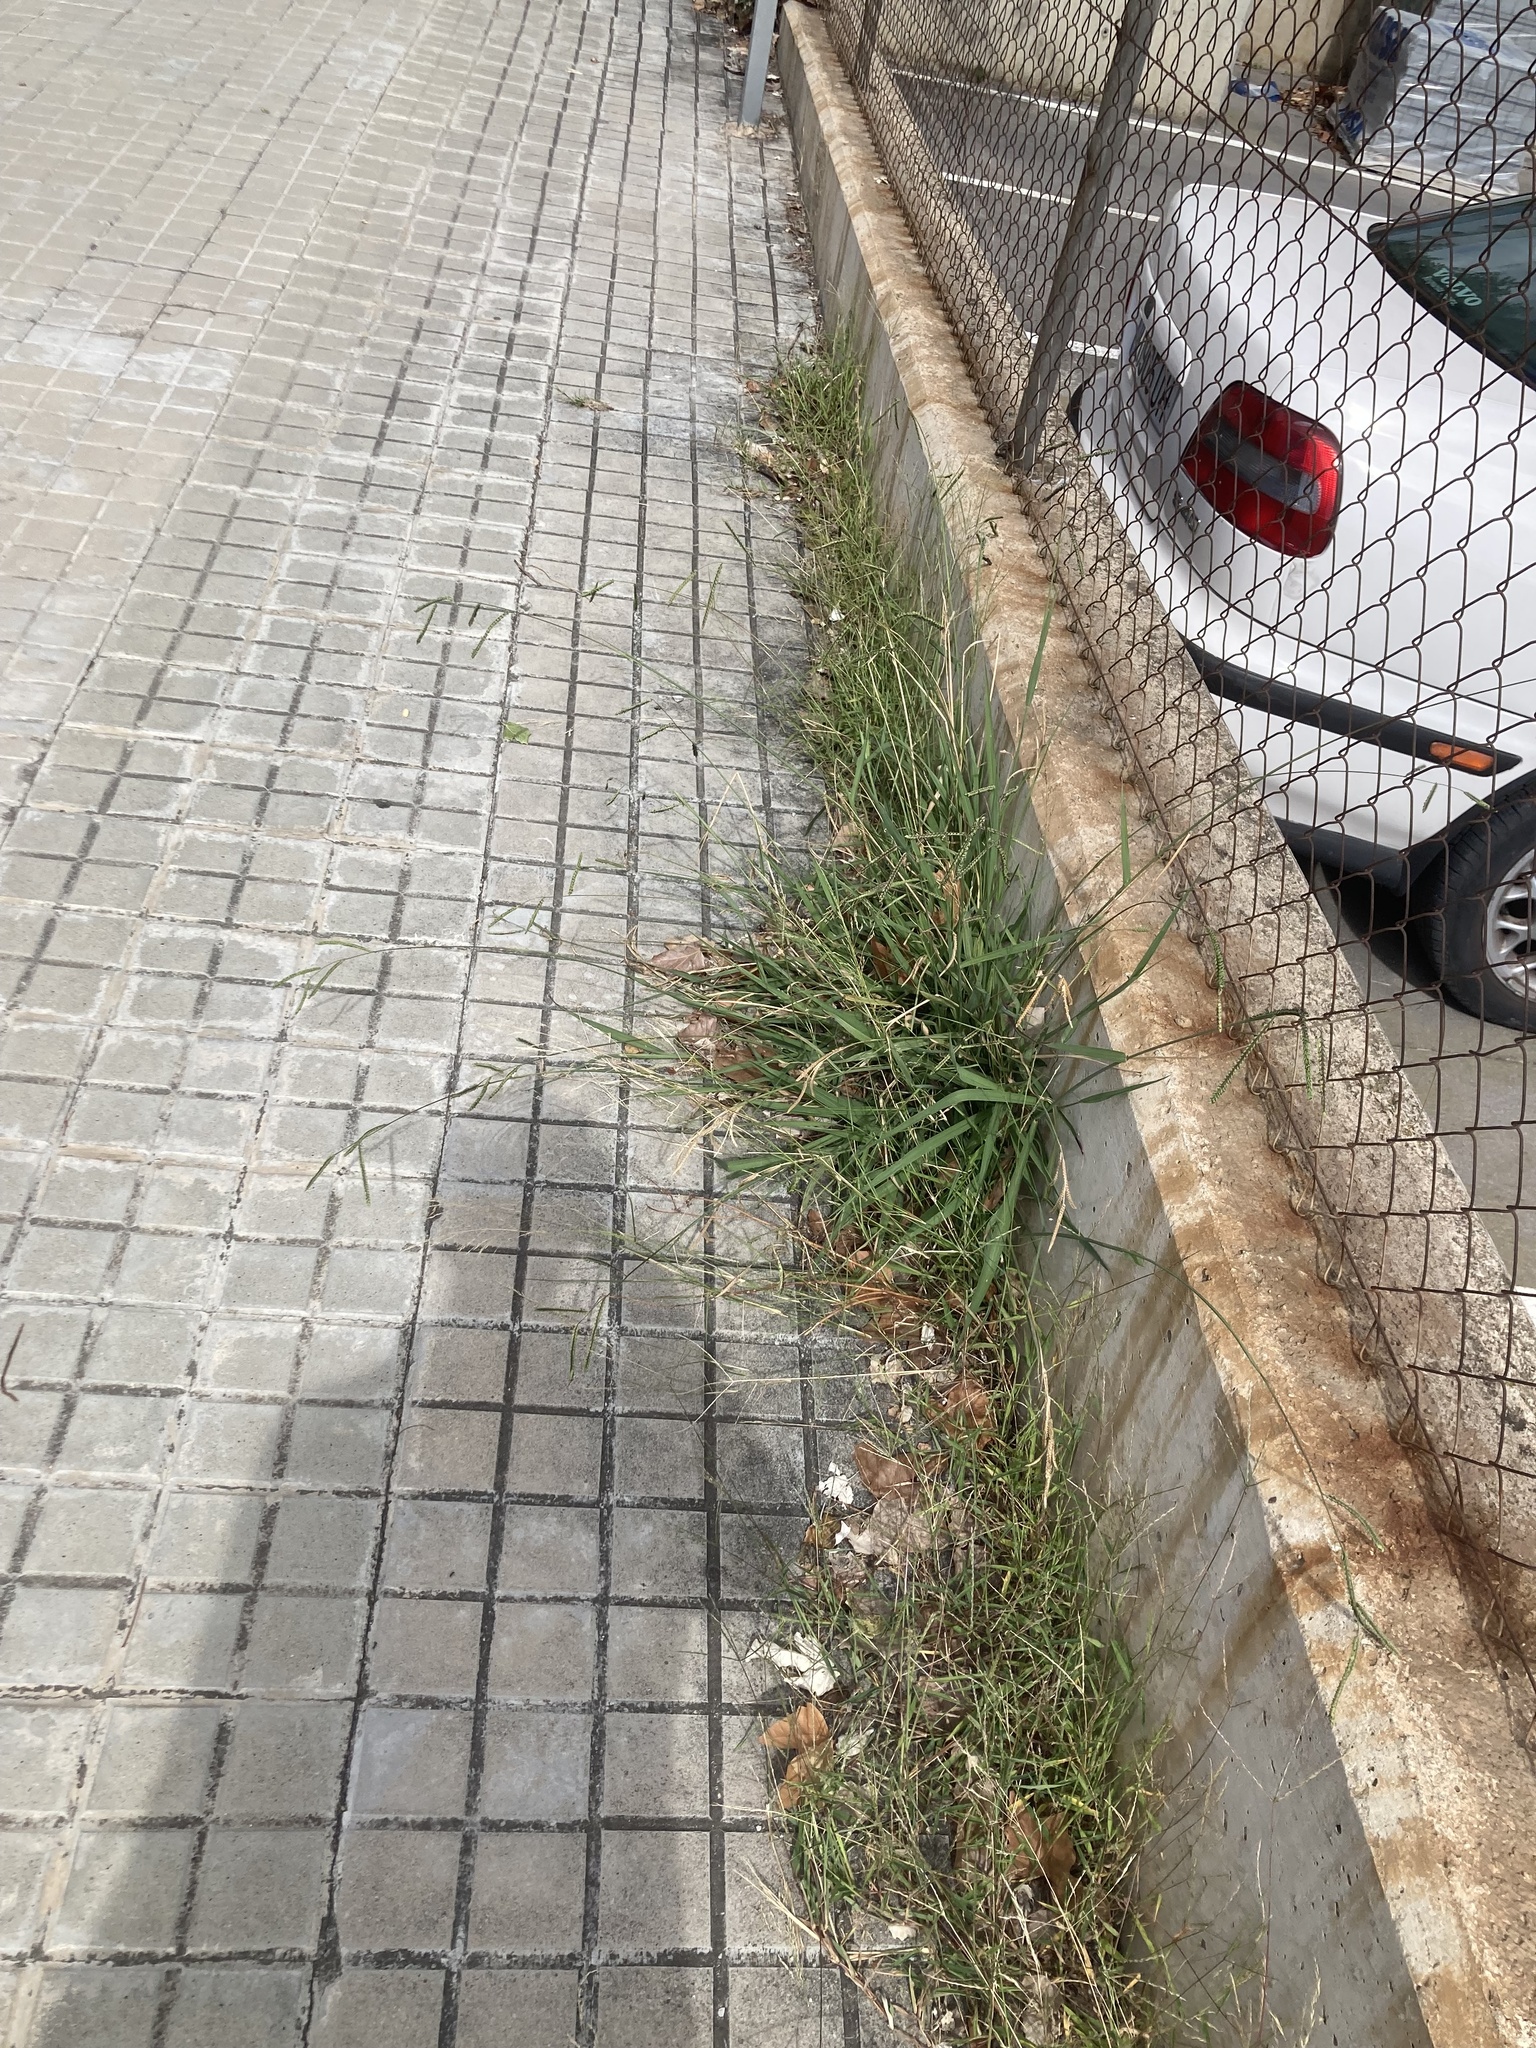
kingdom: Plantae
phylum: Tracheophyta
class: Liliopsida
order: Poales
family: Poaceae
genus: Paspalum
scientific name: Paspalum dilatatum
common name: Dallisgrass
